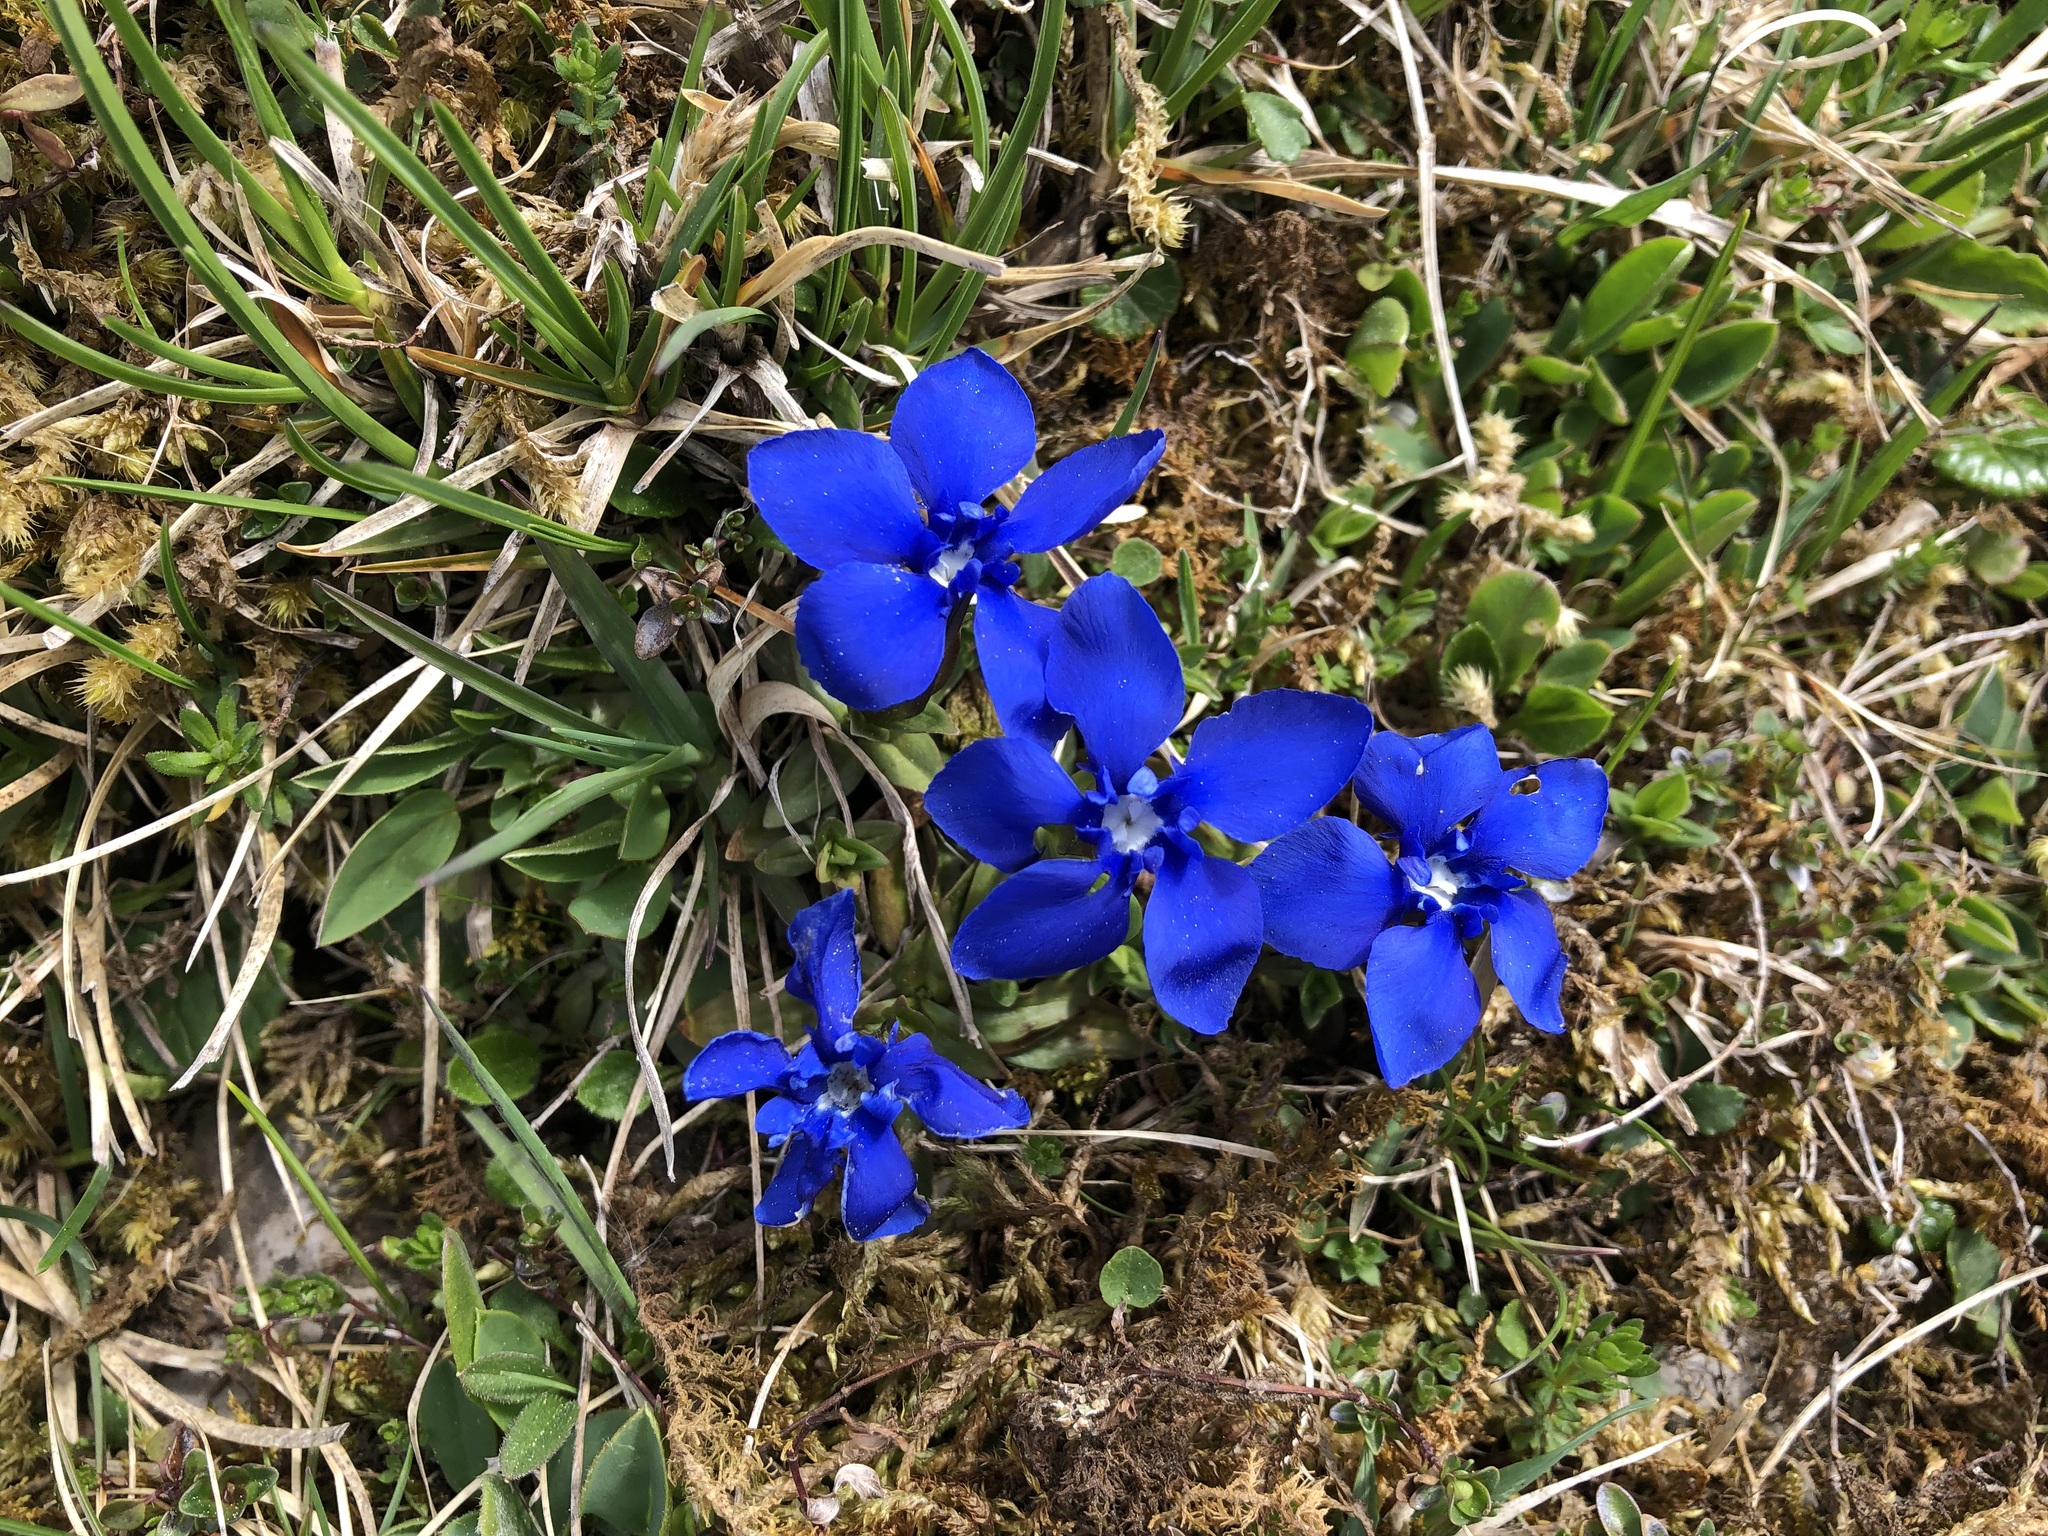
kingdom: Plantae
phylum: Tracheophyta
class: Magnoliopsida
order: Gentianales
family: Gentianaceae
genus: Gentiana
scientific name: Gentiana verna
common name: Spring gentian
